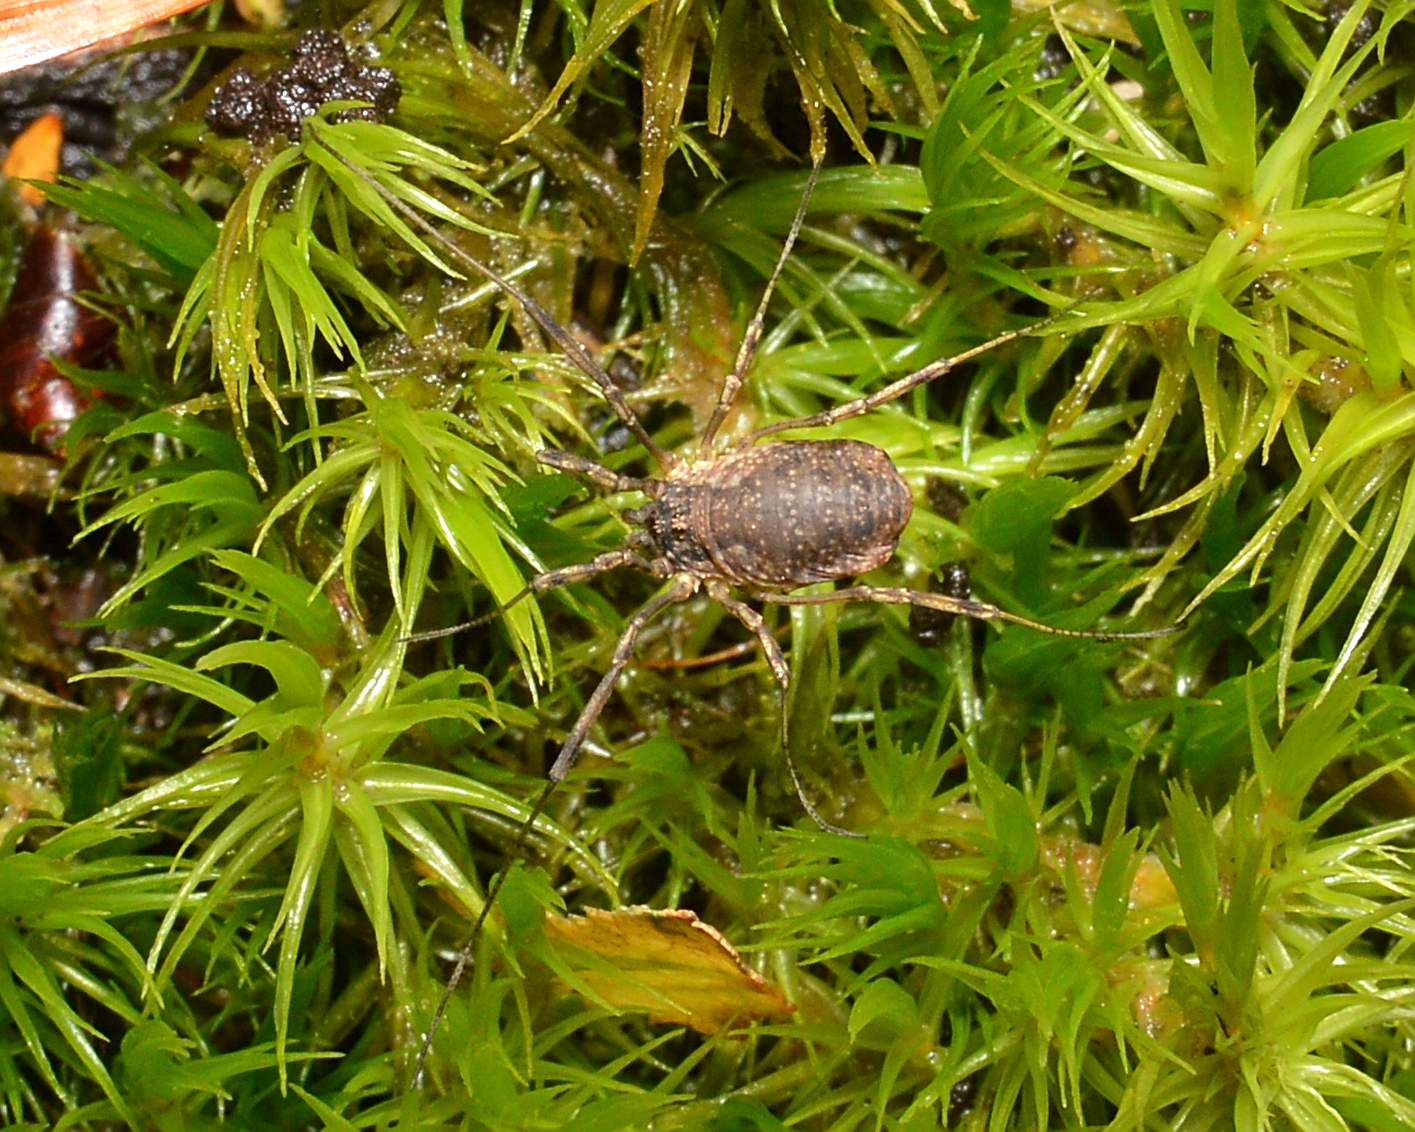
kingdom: Animalia
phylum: Arthropoda
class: Arachnida
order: Opiliones
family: Phalangiidae
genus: Oligolophus
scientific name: Oligolophus tridens
